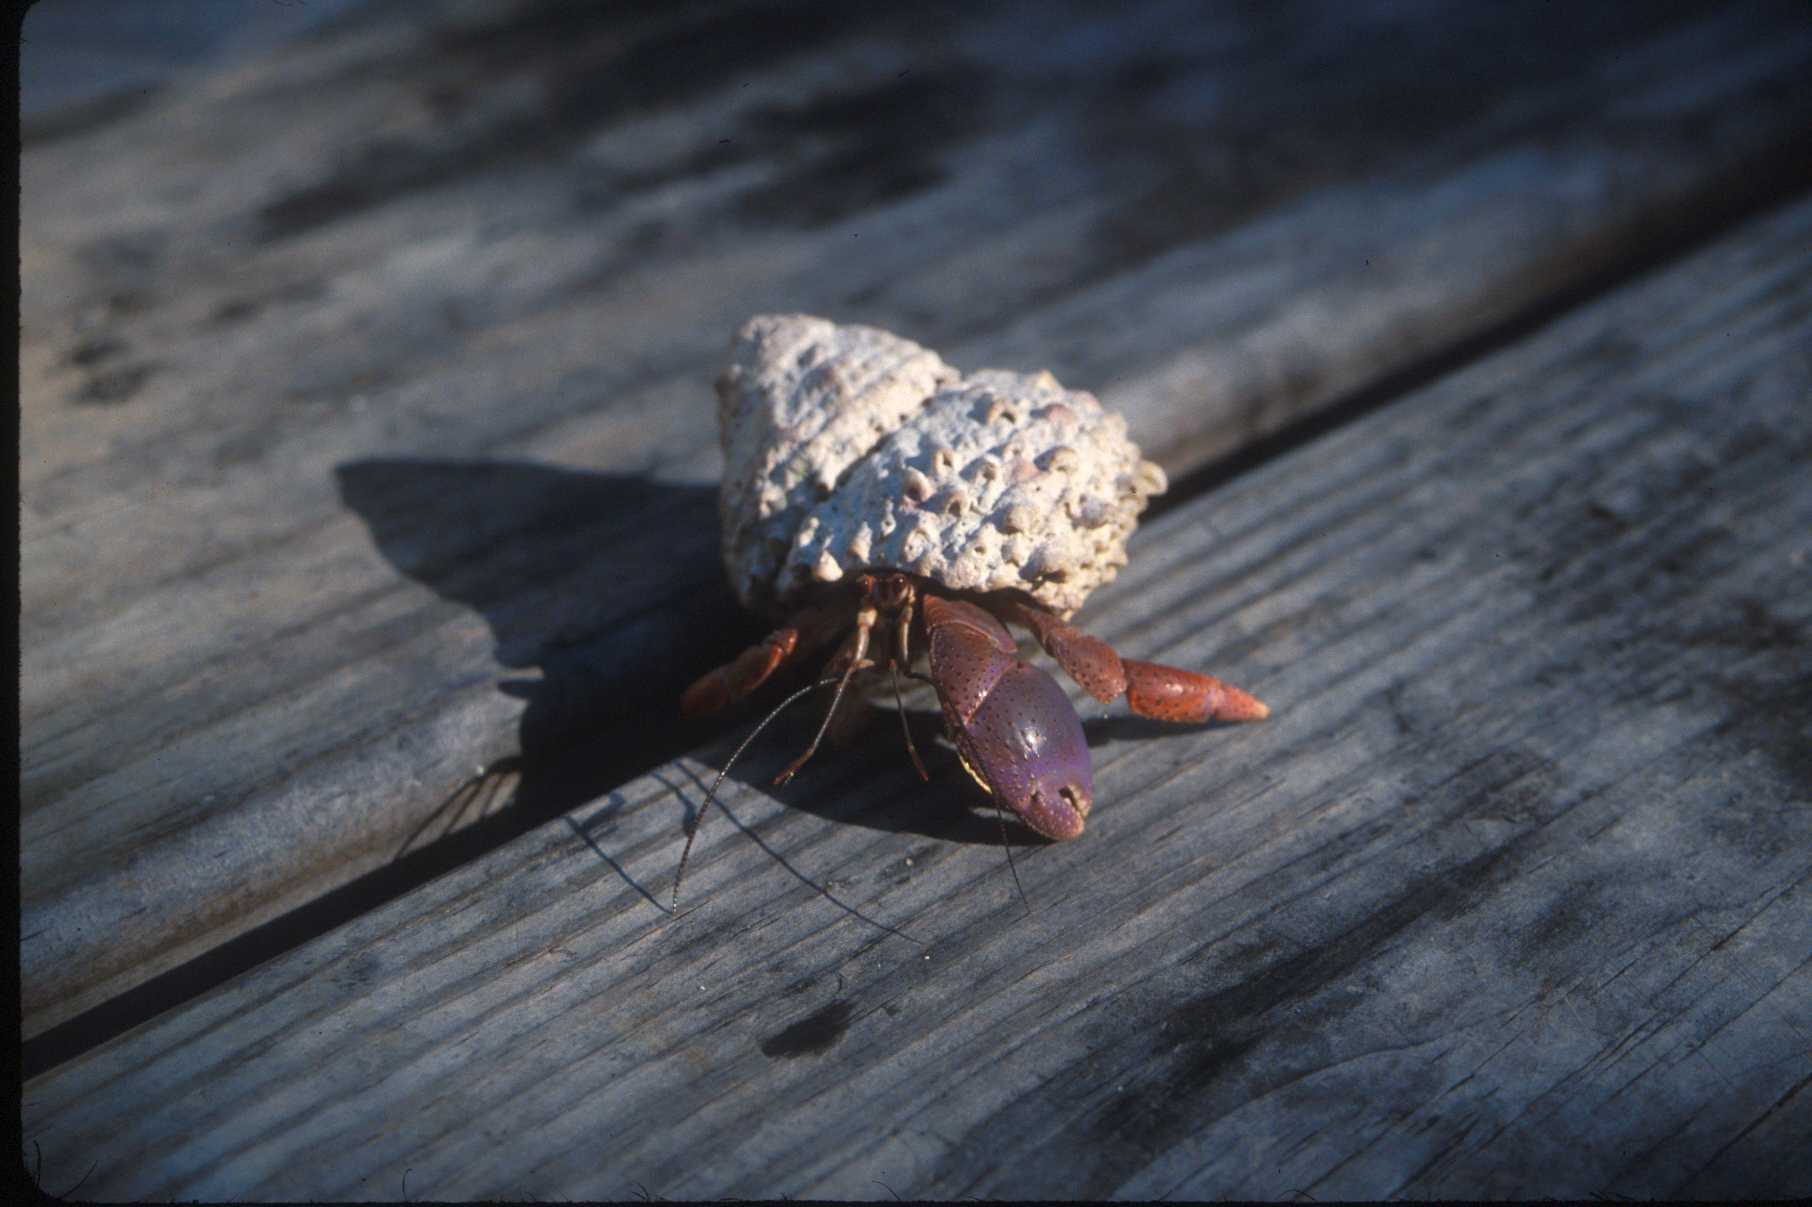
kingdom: Animalia
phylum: Arthropoda
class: Malacostraca
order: Decapoda
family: Coenobitidae
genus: Coenobita
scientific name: Coenobita clypeatus
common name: Caribbean hermit crab
